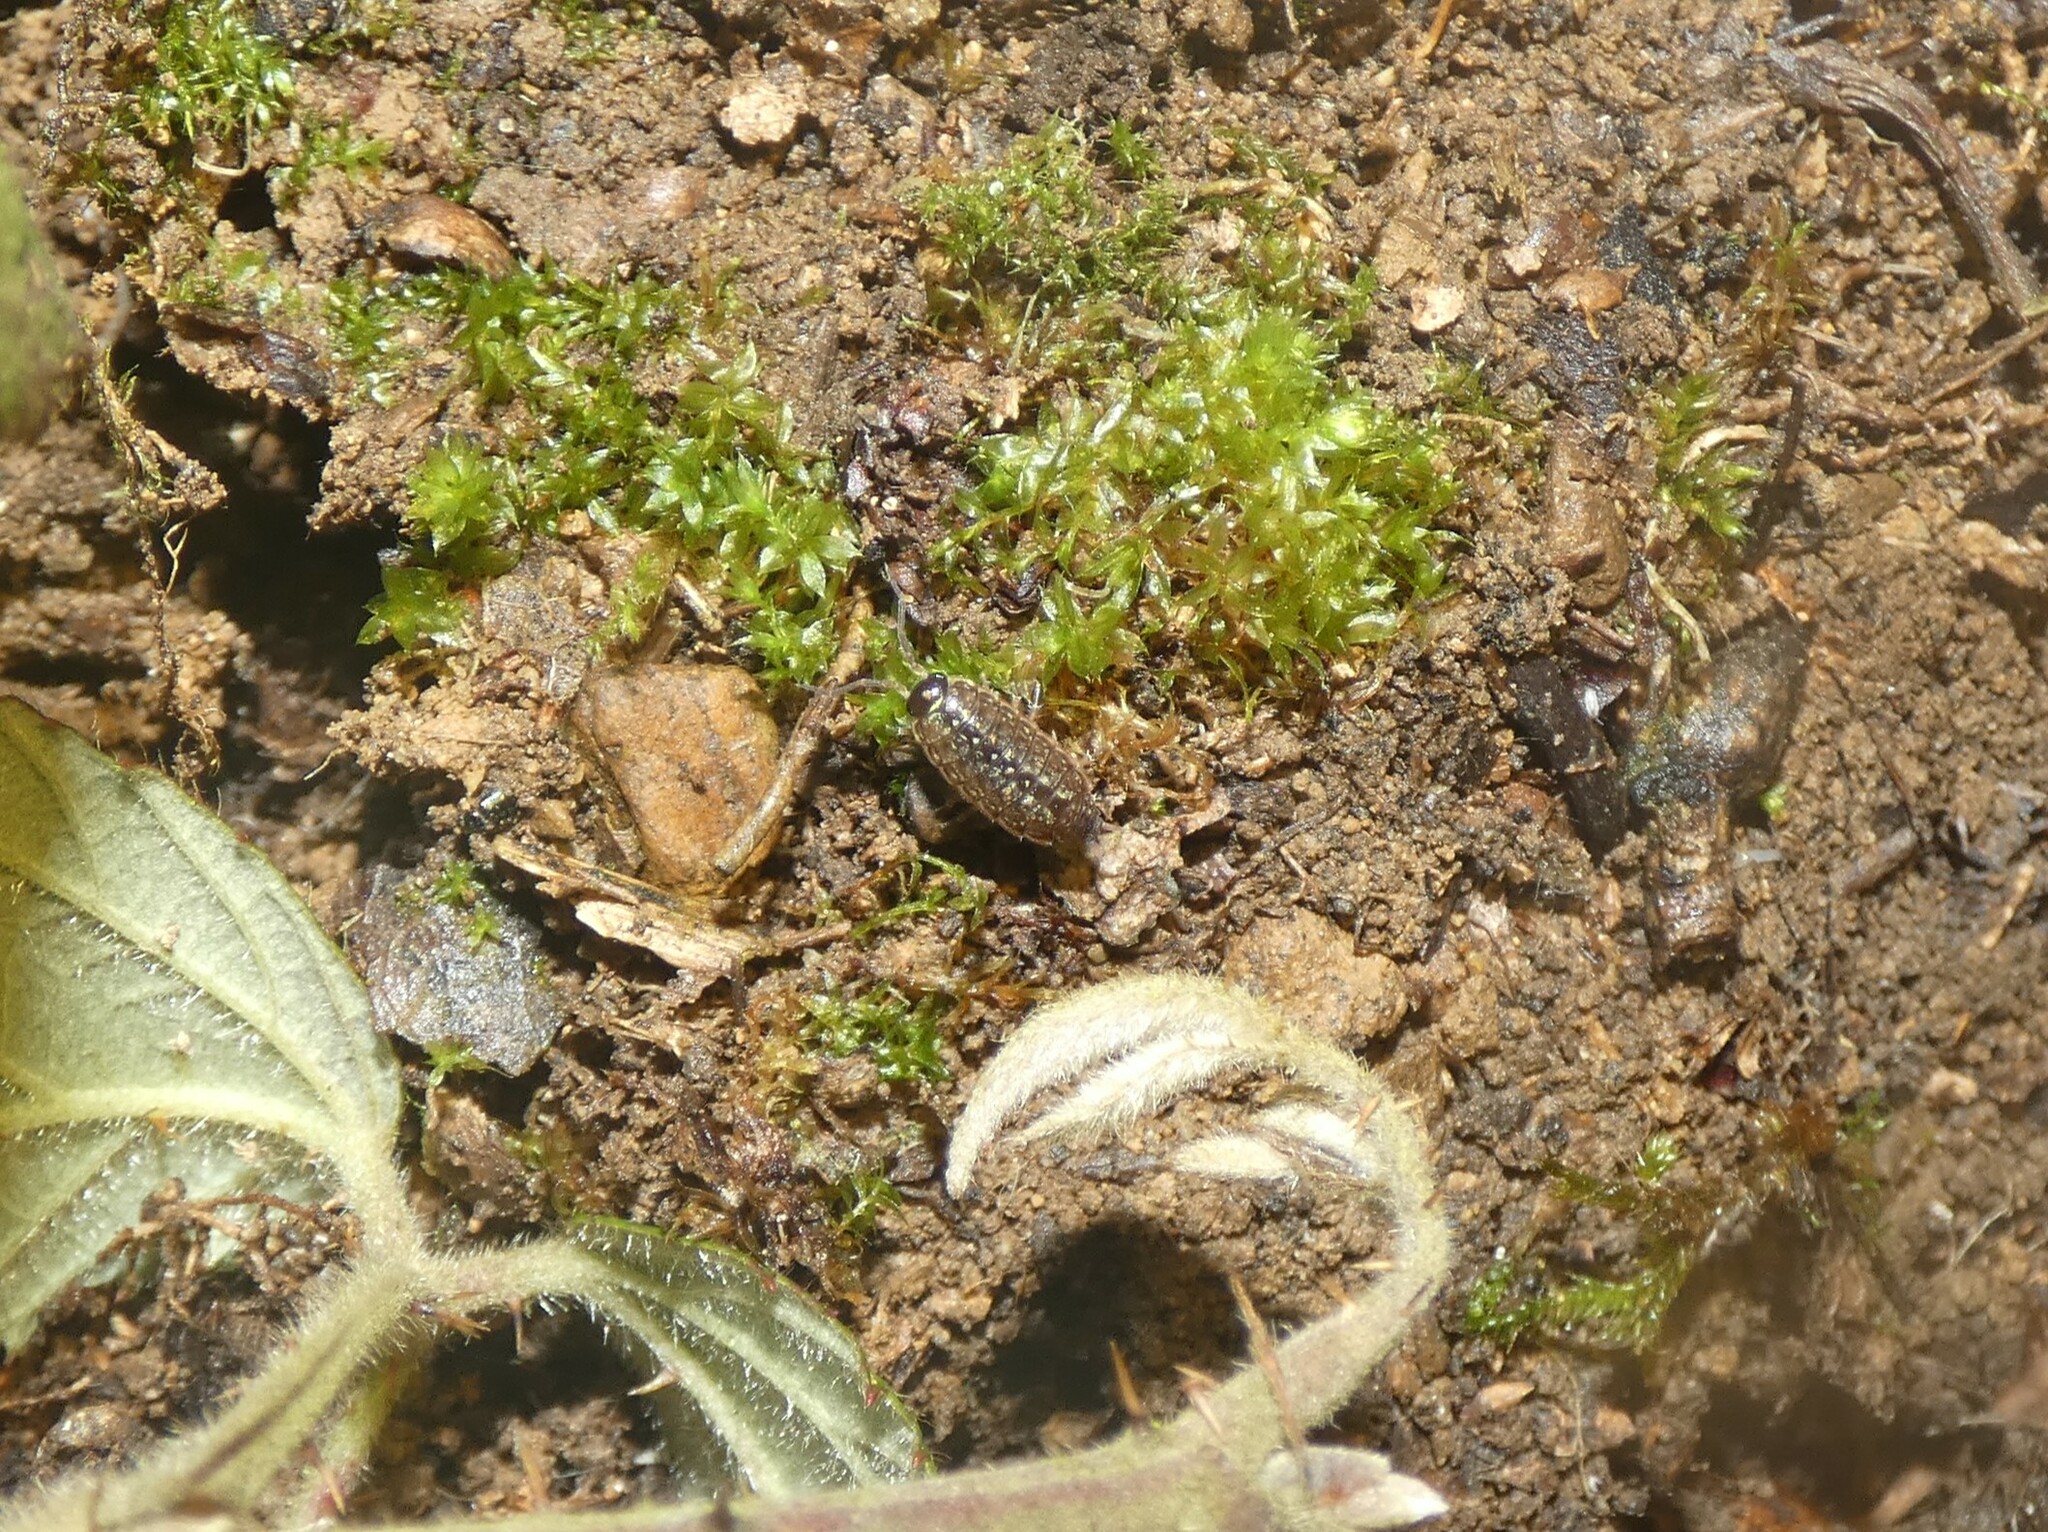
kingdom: Animalia
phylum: Arthropoda
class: Malacostraca
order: Isopoda
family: Philosciidae
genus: Philoscia
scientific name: Philoscia muscorum
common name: Common striped woodlouse
